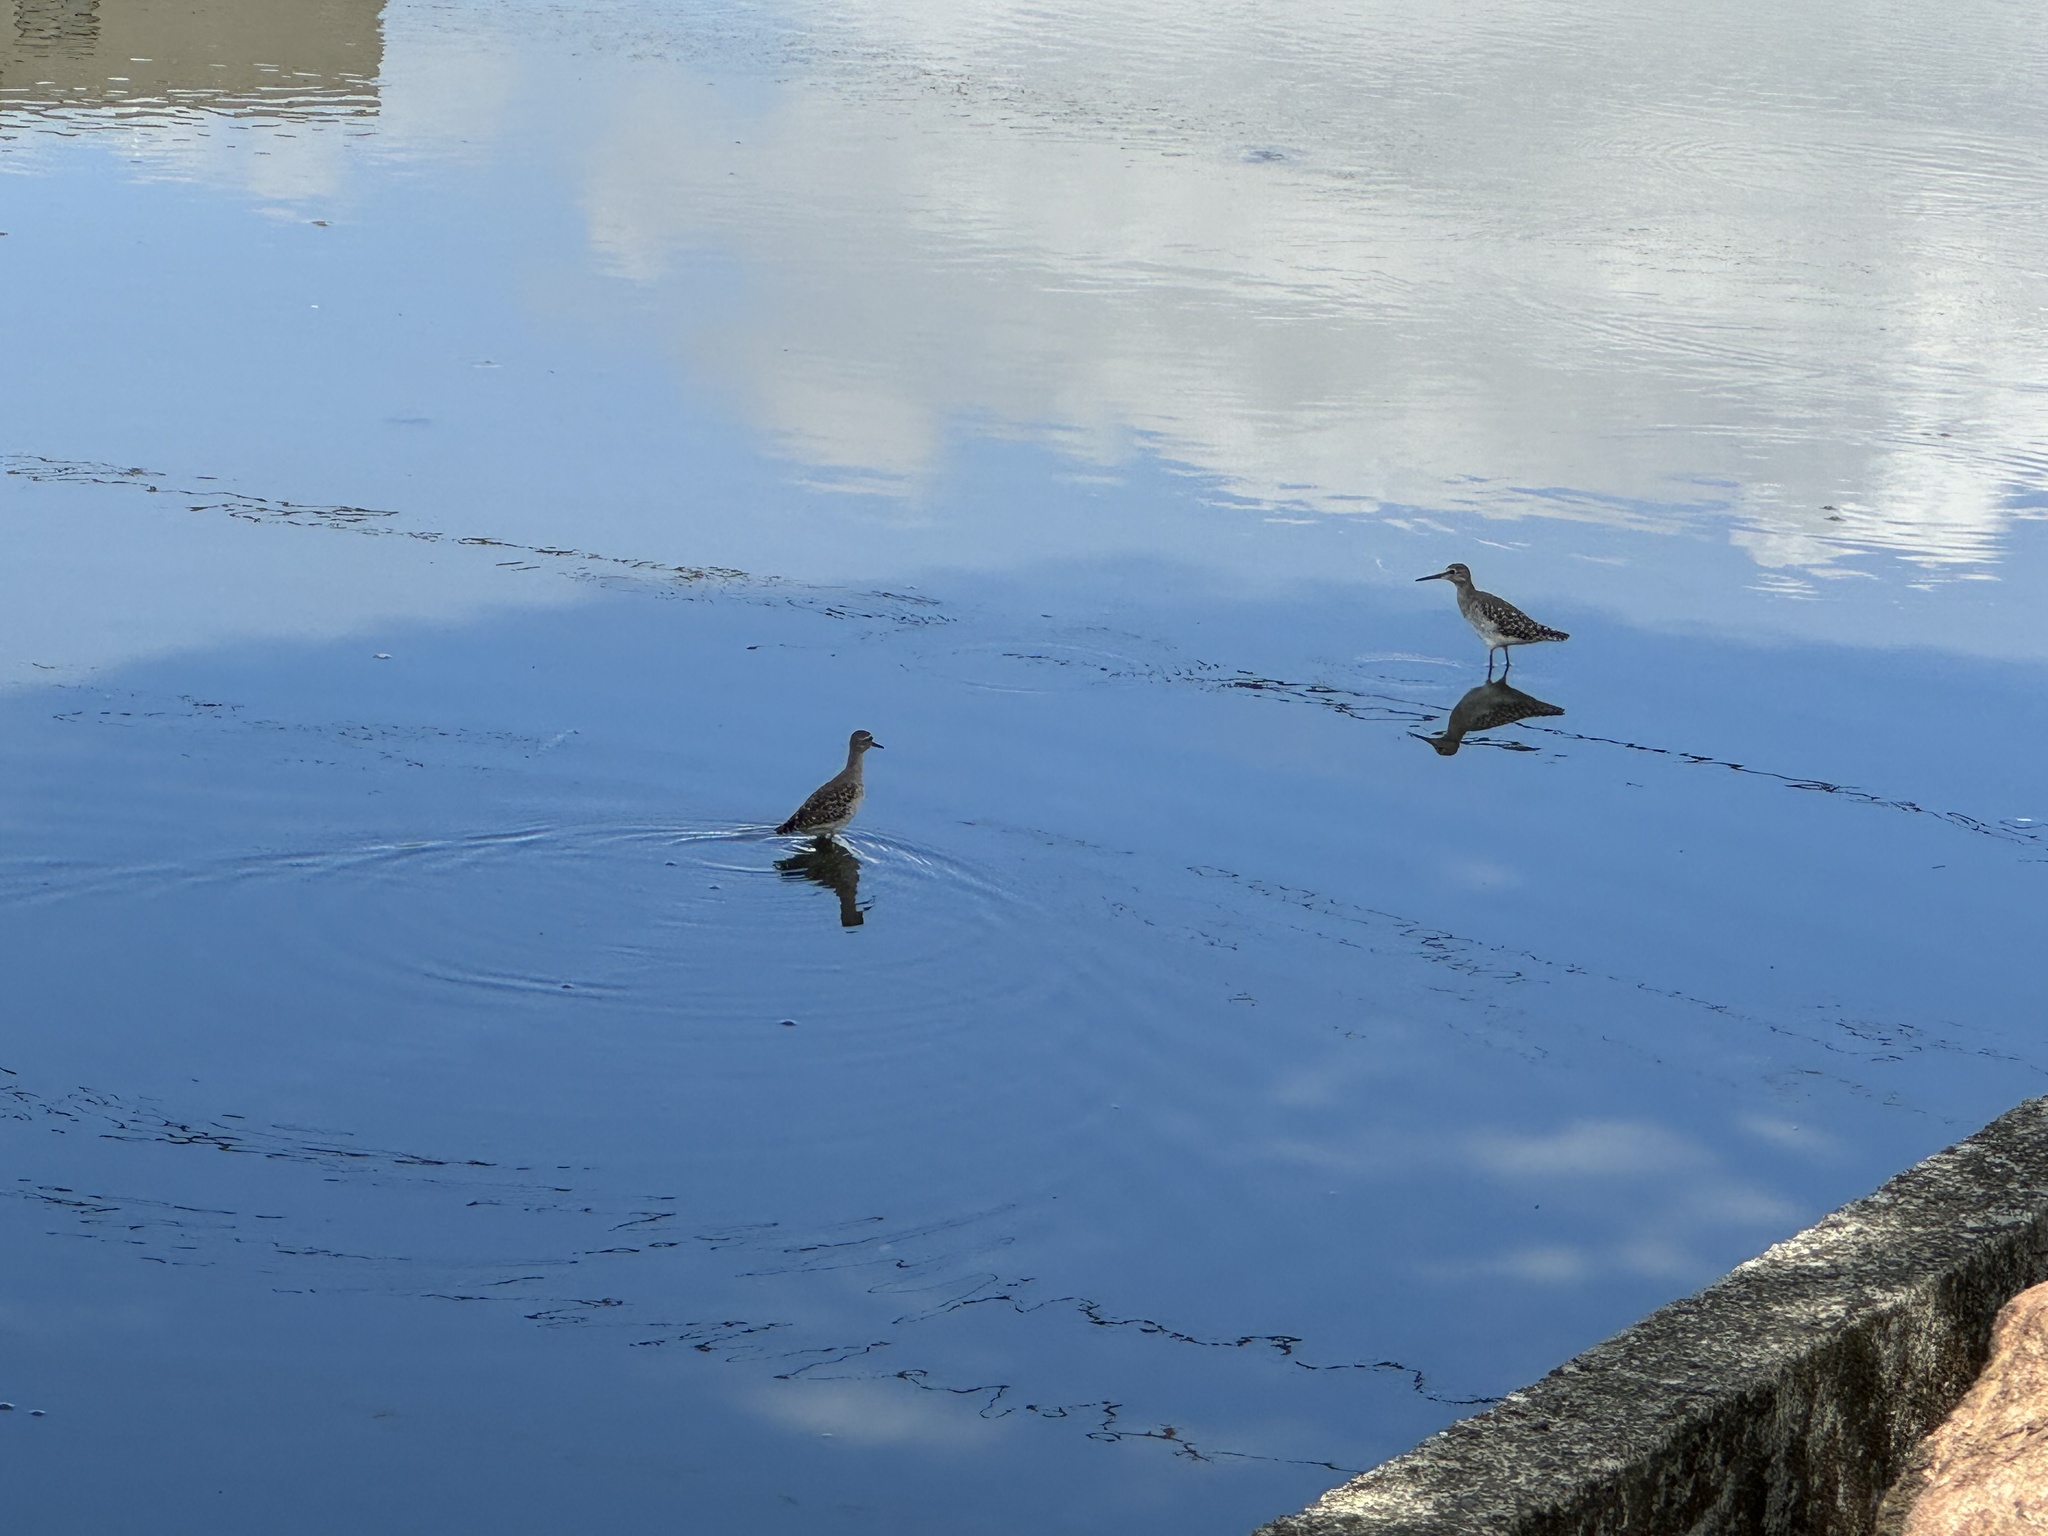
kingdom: Animalia
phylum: Chordata
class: Aves
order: Charadriiformes
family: Scolopacidae
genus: Tringa
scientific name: Tringa glareola
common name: Wood sandpiper
